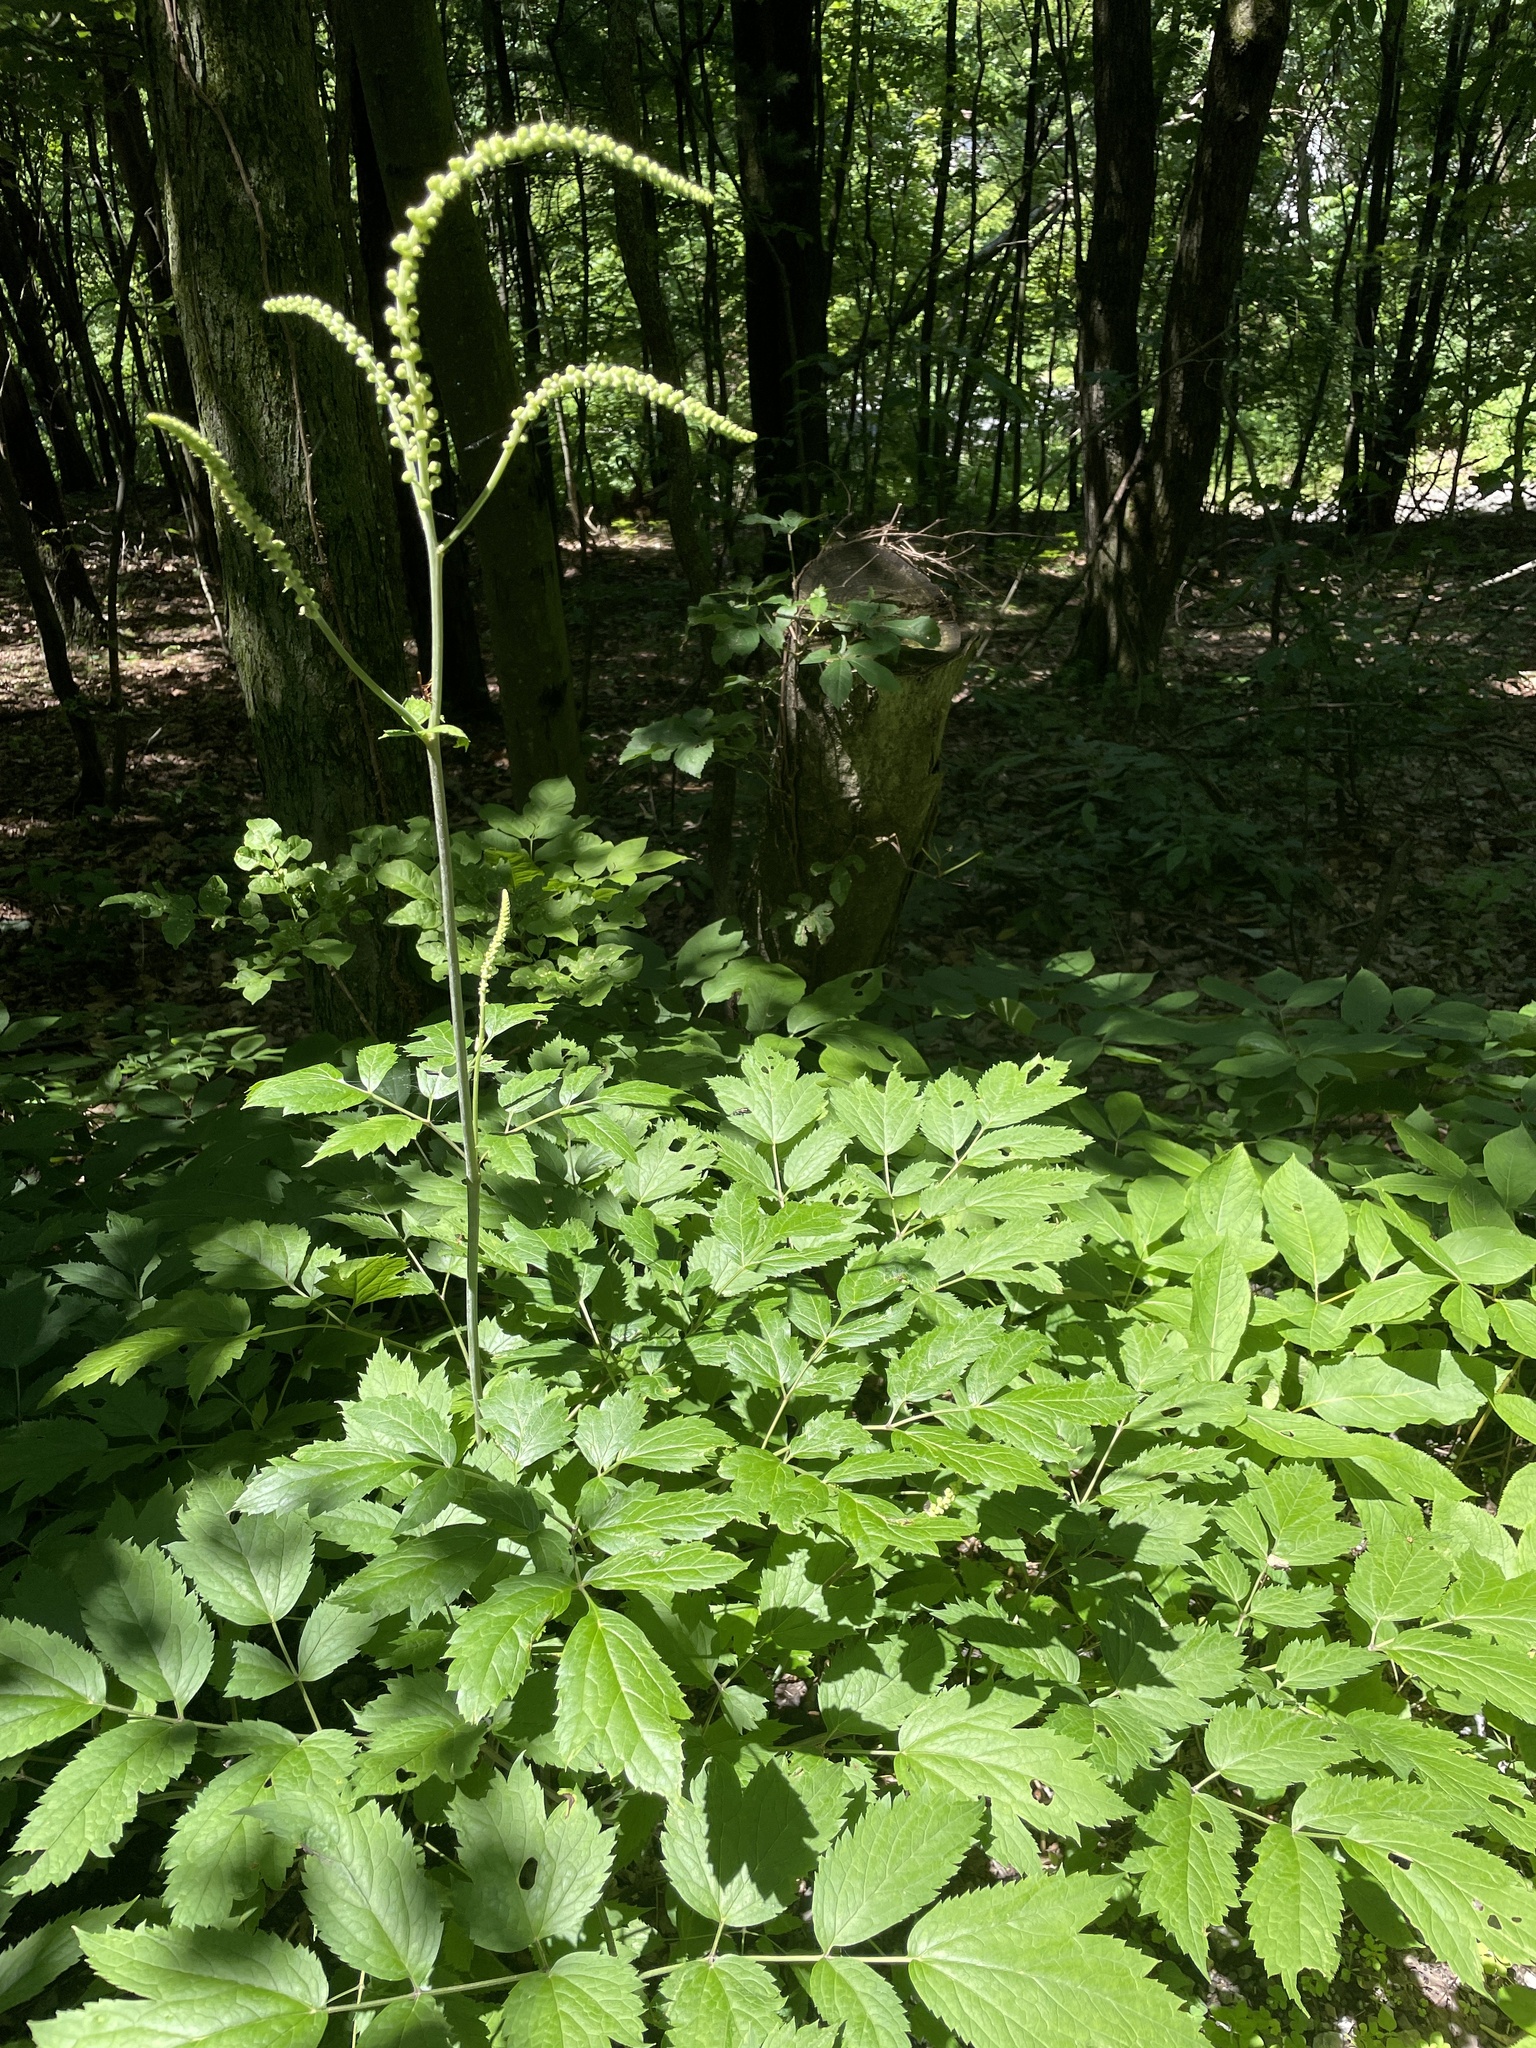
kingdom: Animalia
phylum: Arthropoda
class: Insecta
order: Lepidoptera
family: Lycaenidae
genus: Satyrium
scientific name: Satyrium calanus
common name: Banded hairstreak
